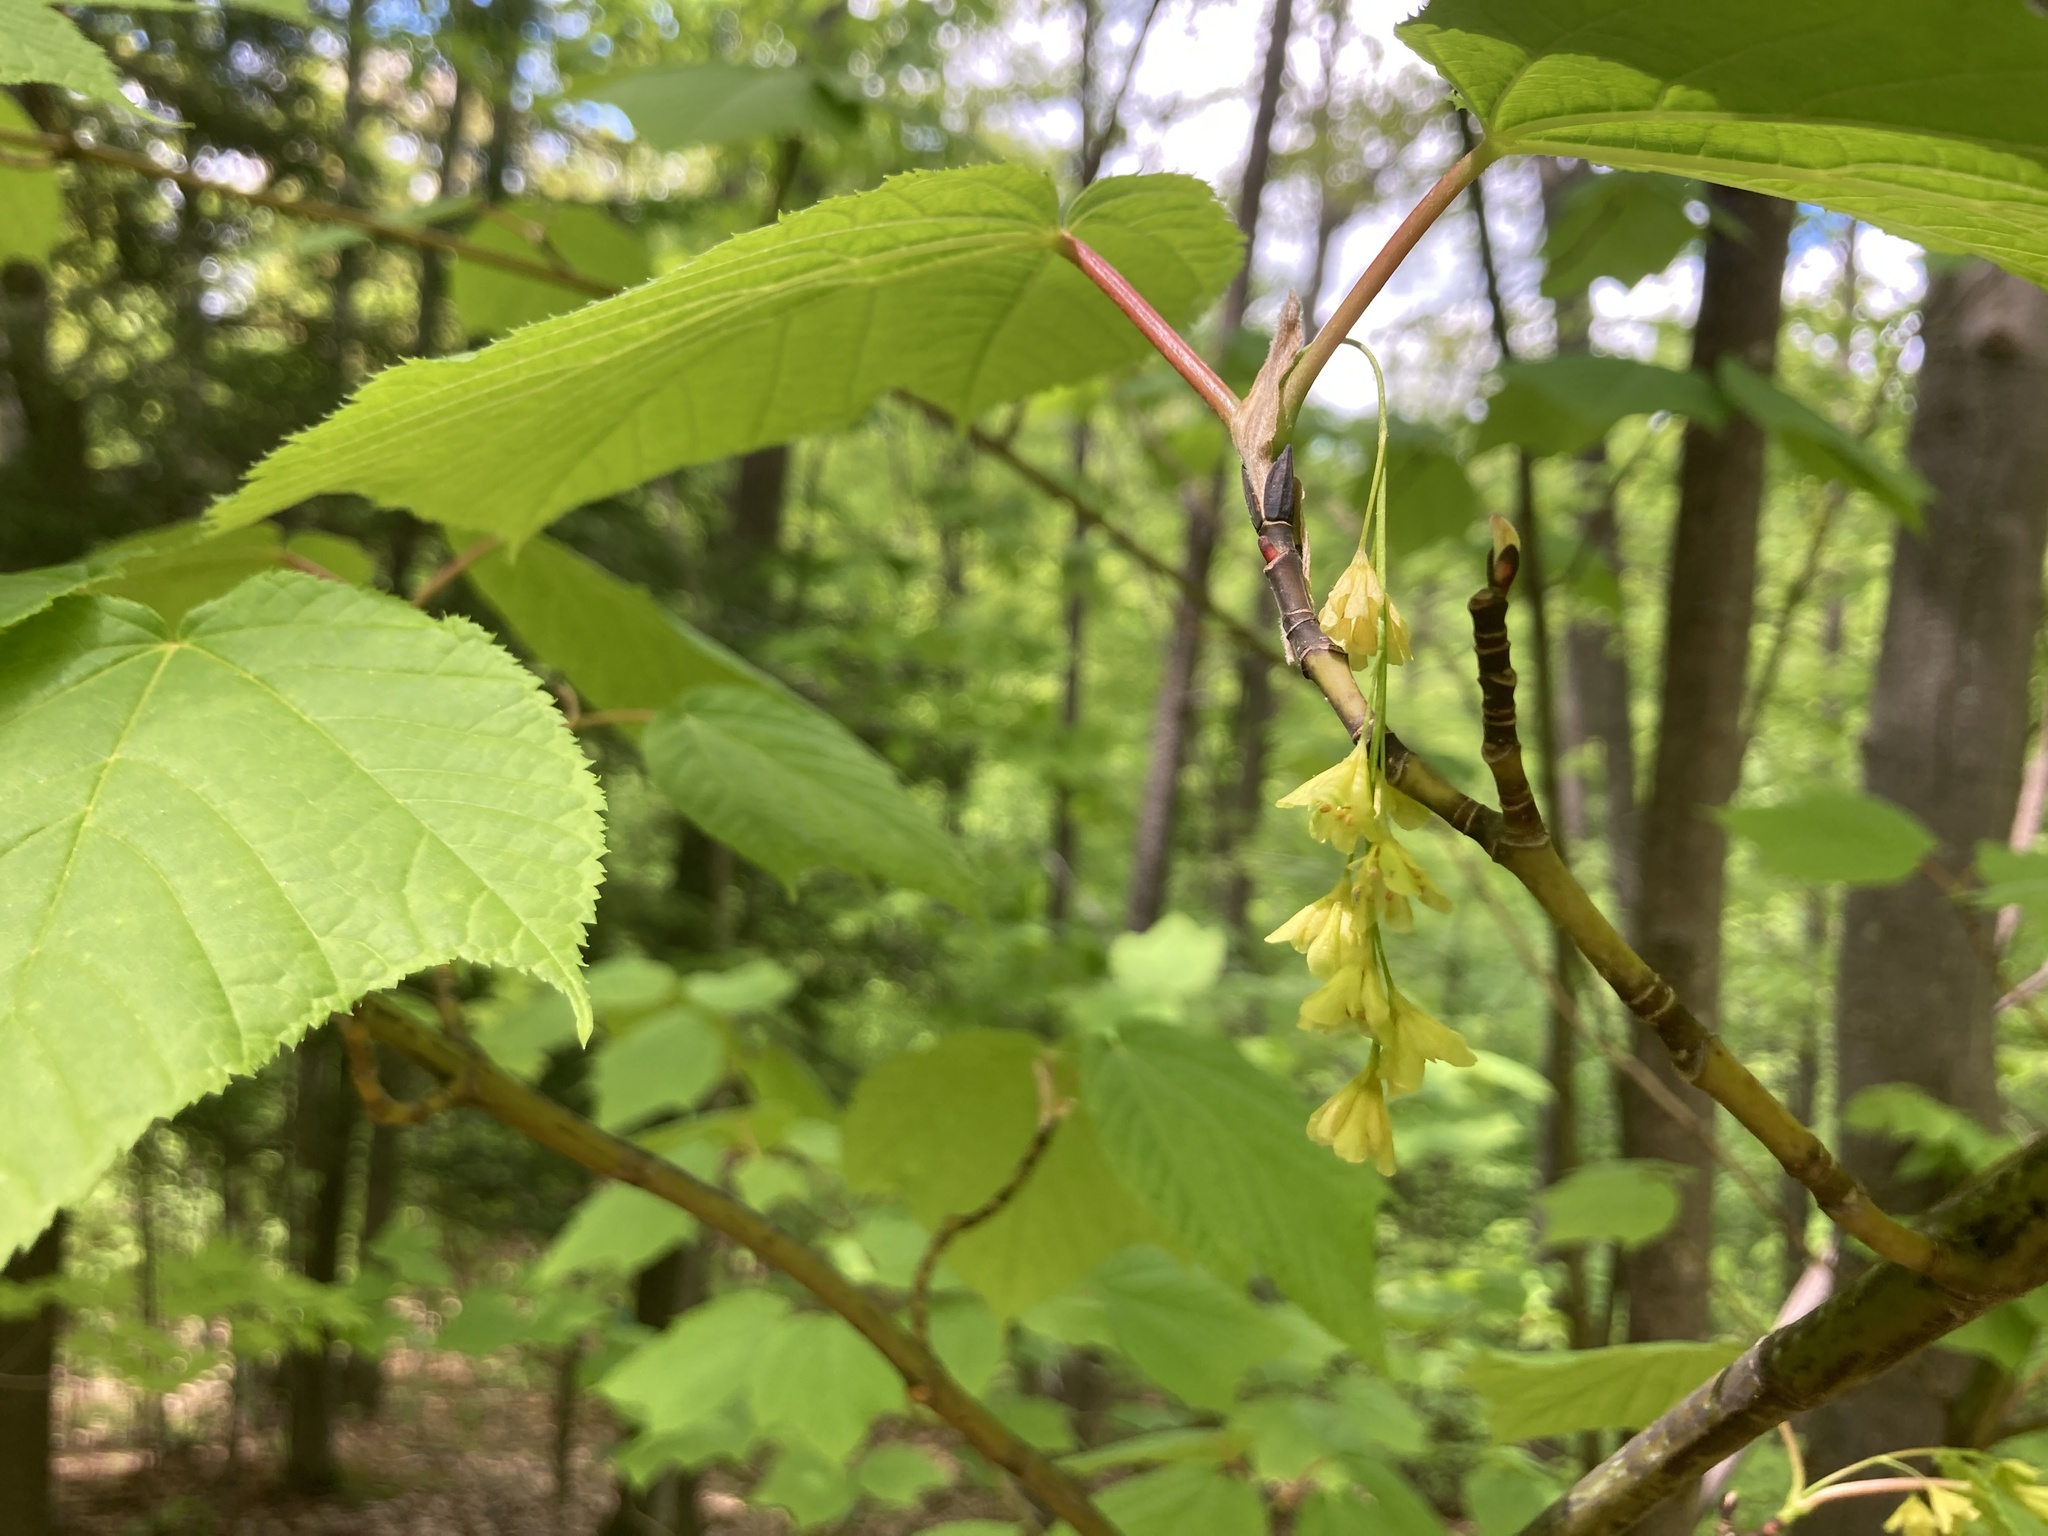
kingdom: Plantae
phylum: Tracheophyta
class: Magnoliopsida
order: Sapindales
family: Sapindaceae
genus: Acer
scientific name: Acer pensylvanicum
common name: Moosewood
